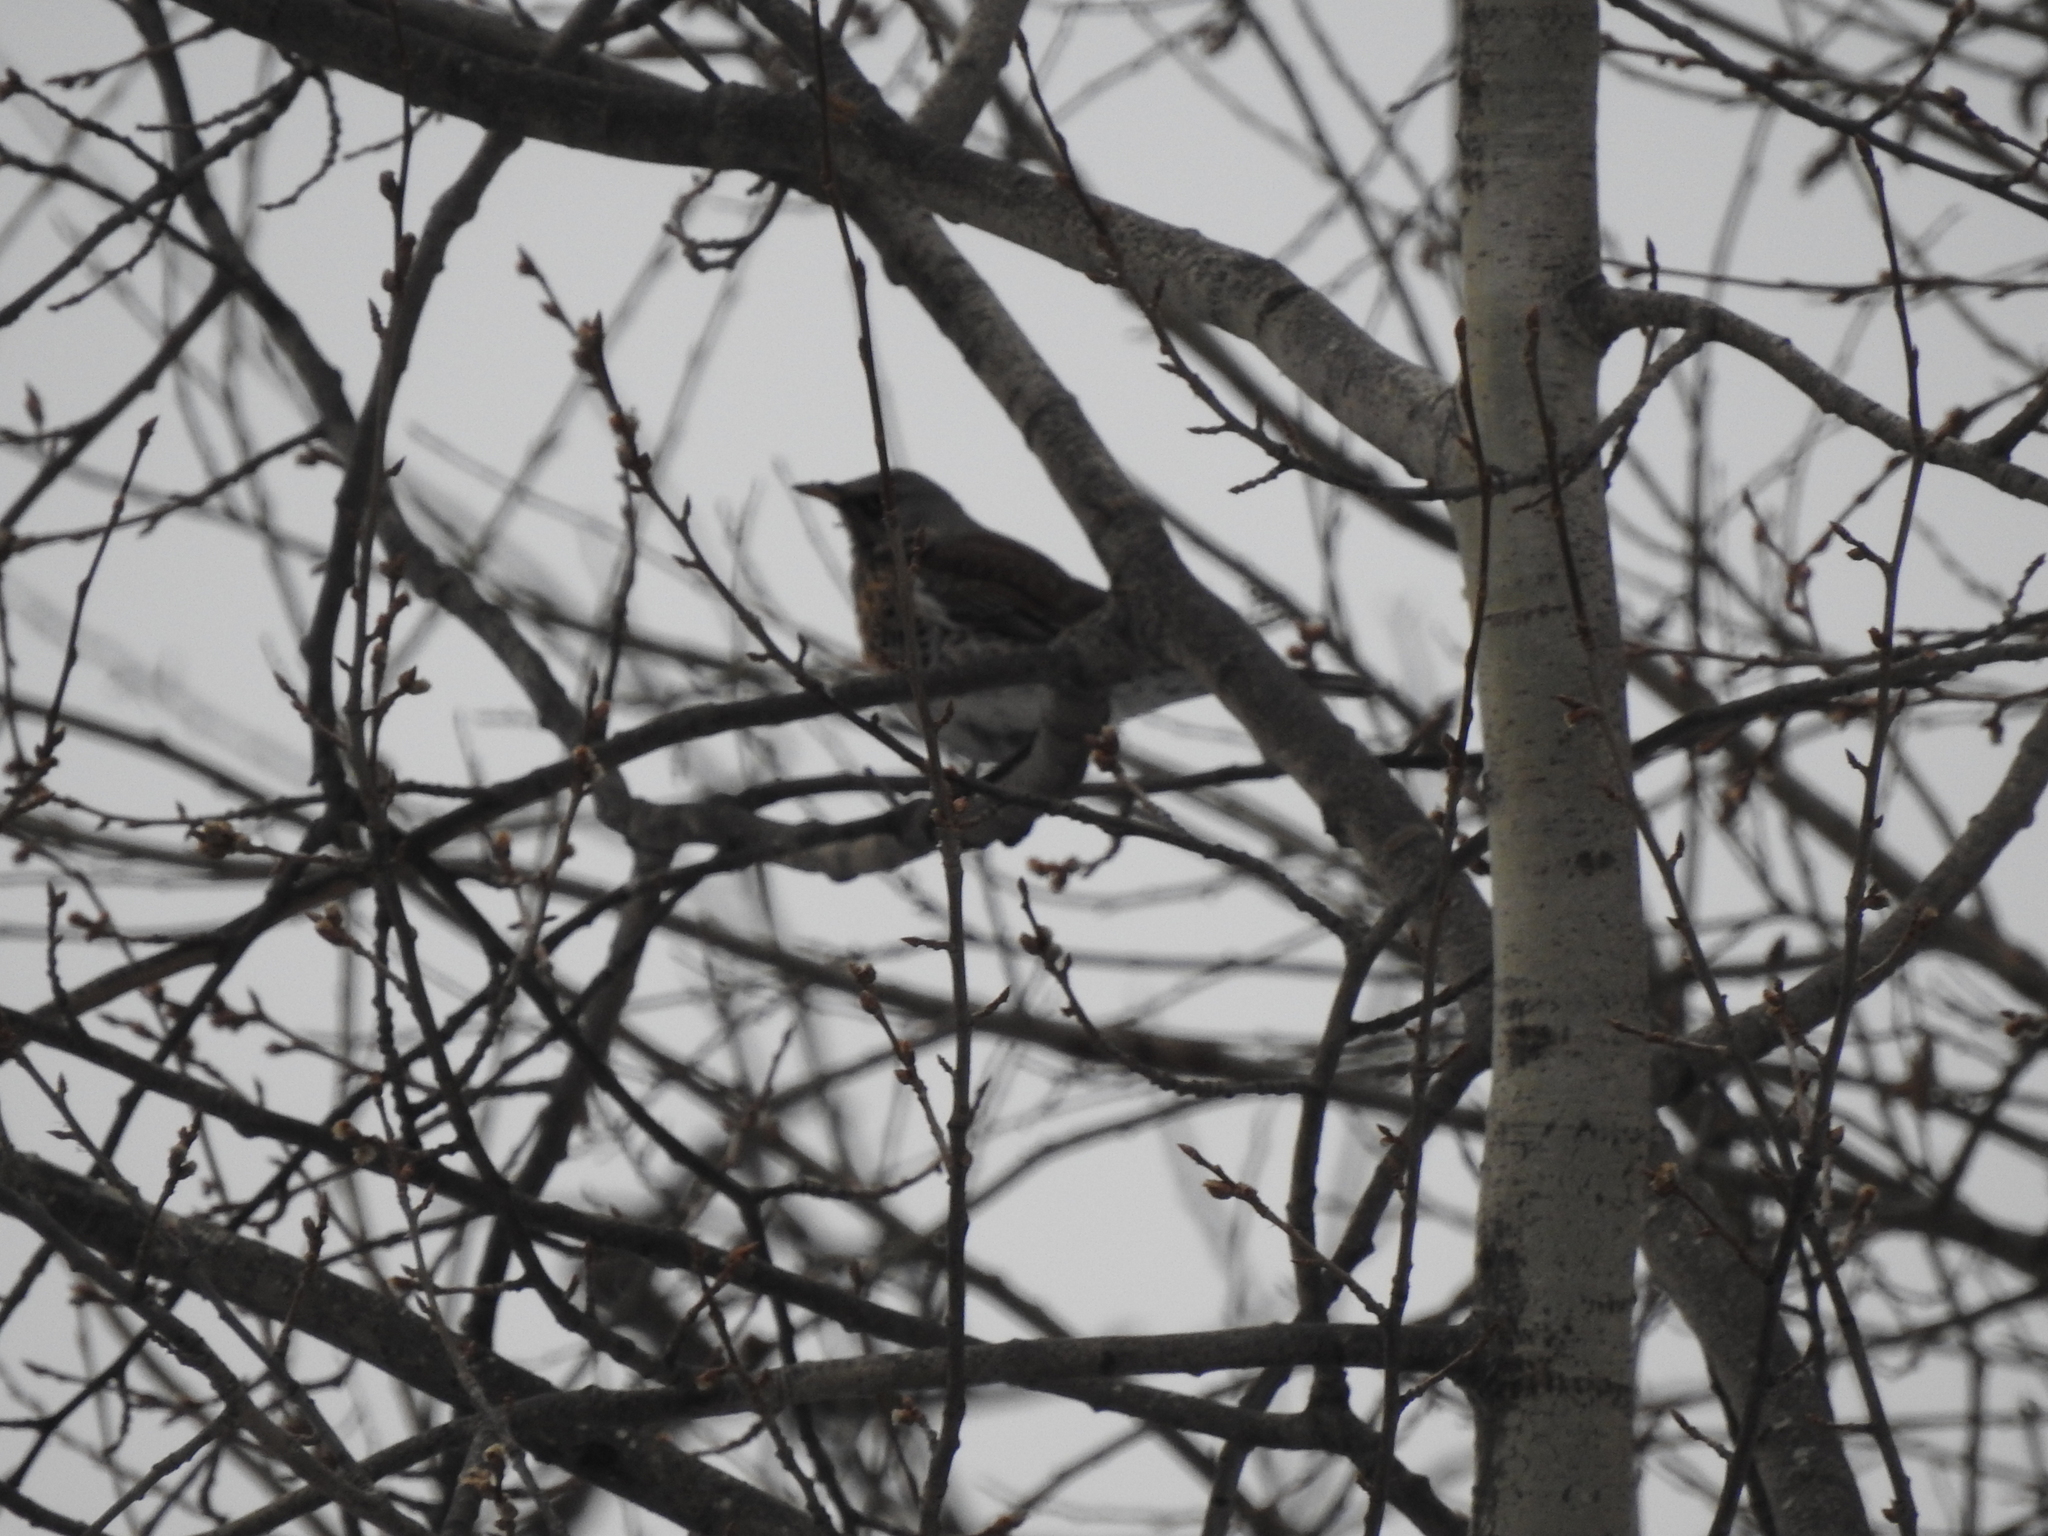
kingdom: Animalia
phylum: Chordata
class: Aves
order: Passeriformes
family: Turdidae
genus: Turdus
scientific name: Turdus pilaris
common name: Fieldfare
